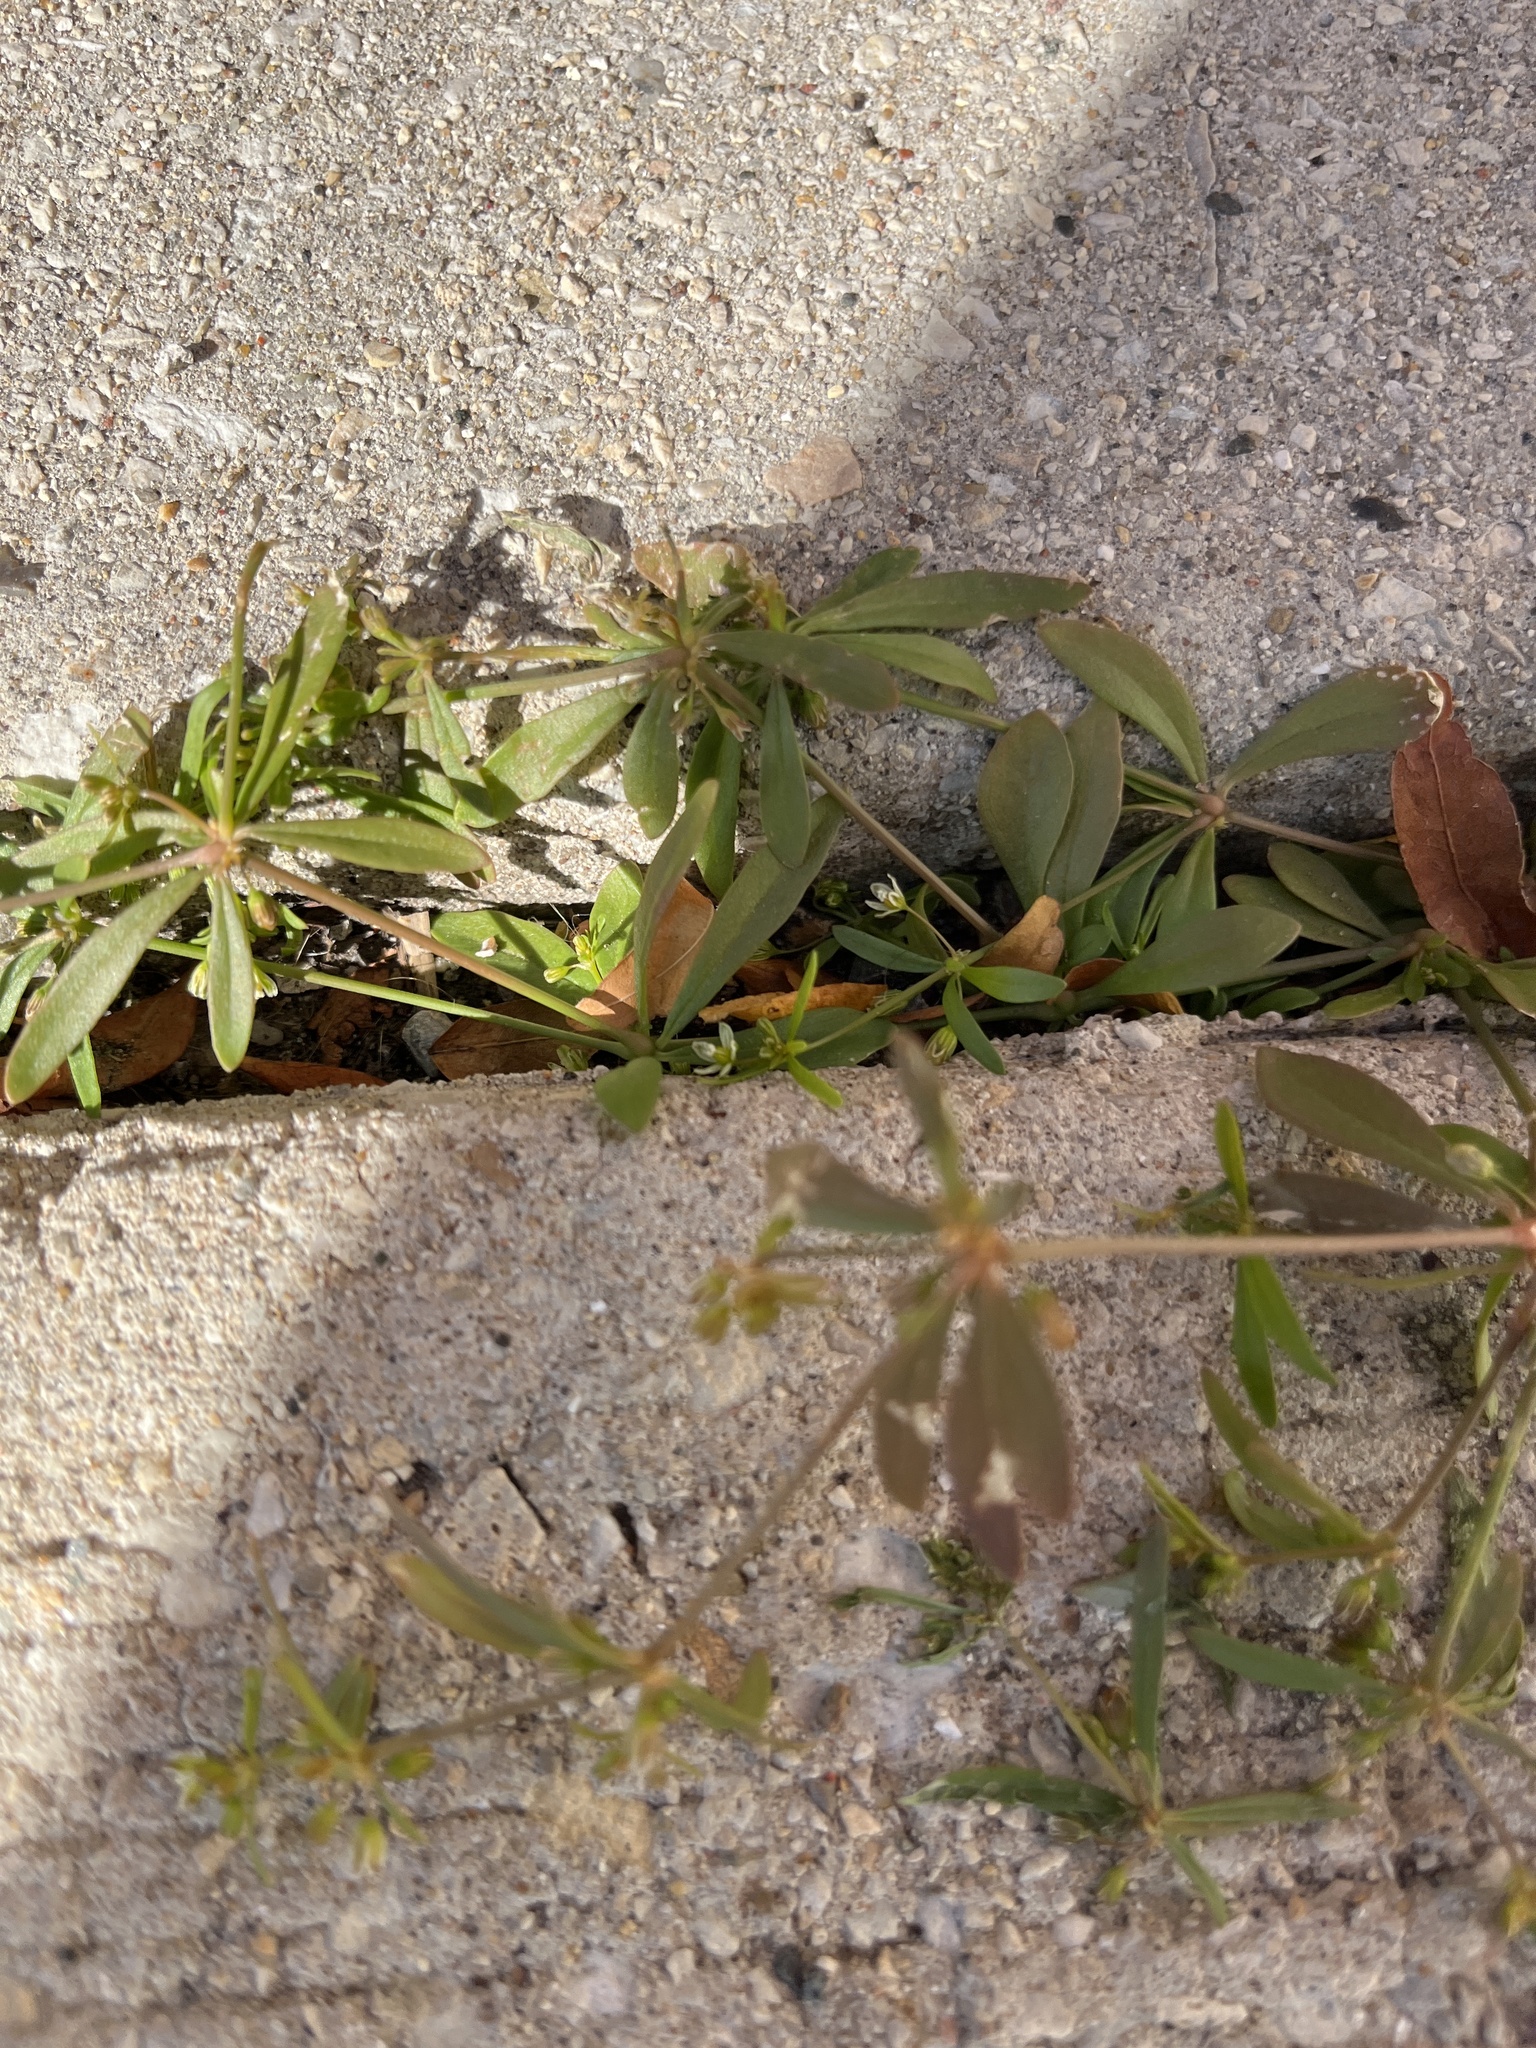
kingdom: Plantae
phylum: Tracheophyta
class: Magnoliopsida
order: Caryophyllales
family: Molluginaceae
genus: Mollugo
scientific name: Mollugo verticillata
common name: Green carpetweed
